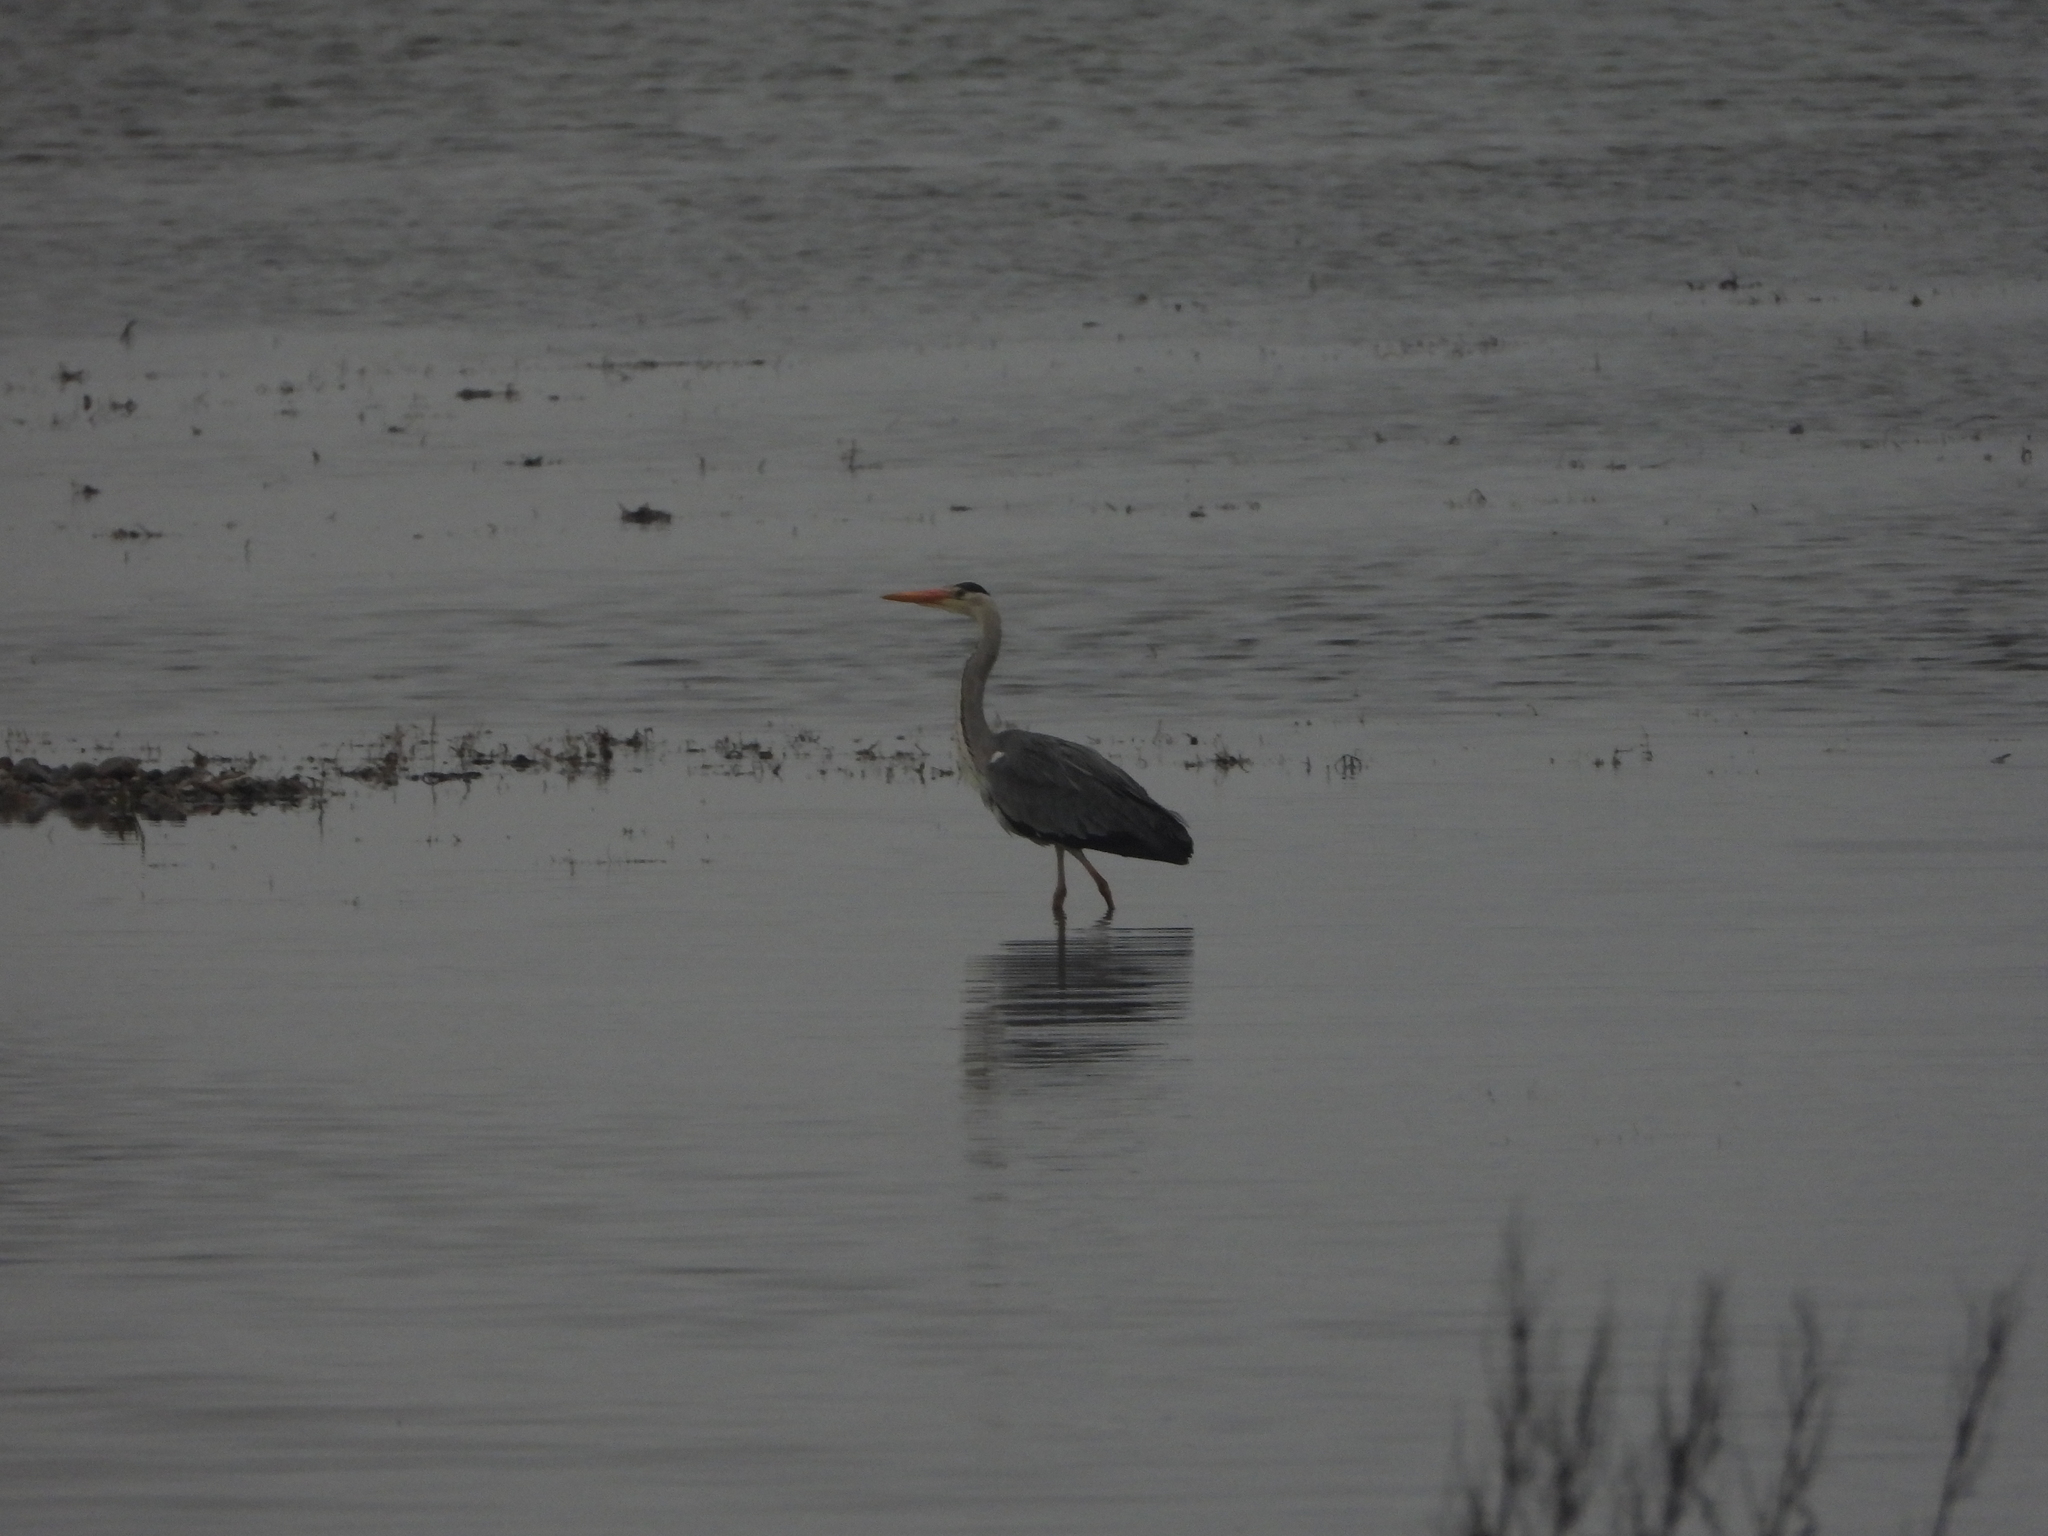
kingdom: Animalia
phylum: Chordata
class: Aves
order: Pelecaniformes
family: Ardeidae
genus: Ardea
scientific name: Ardea cinerea
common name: Grey heron
